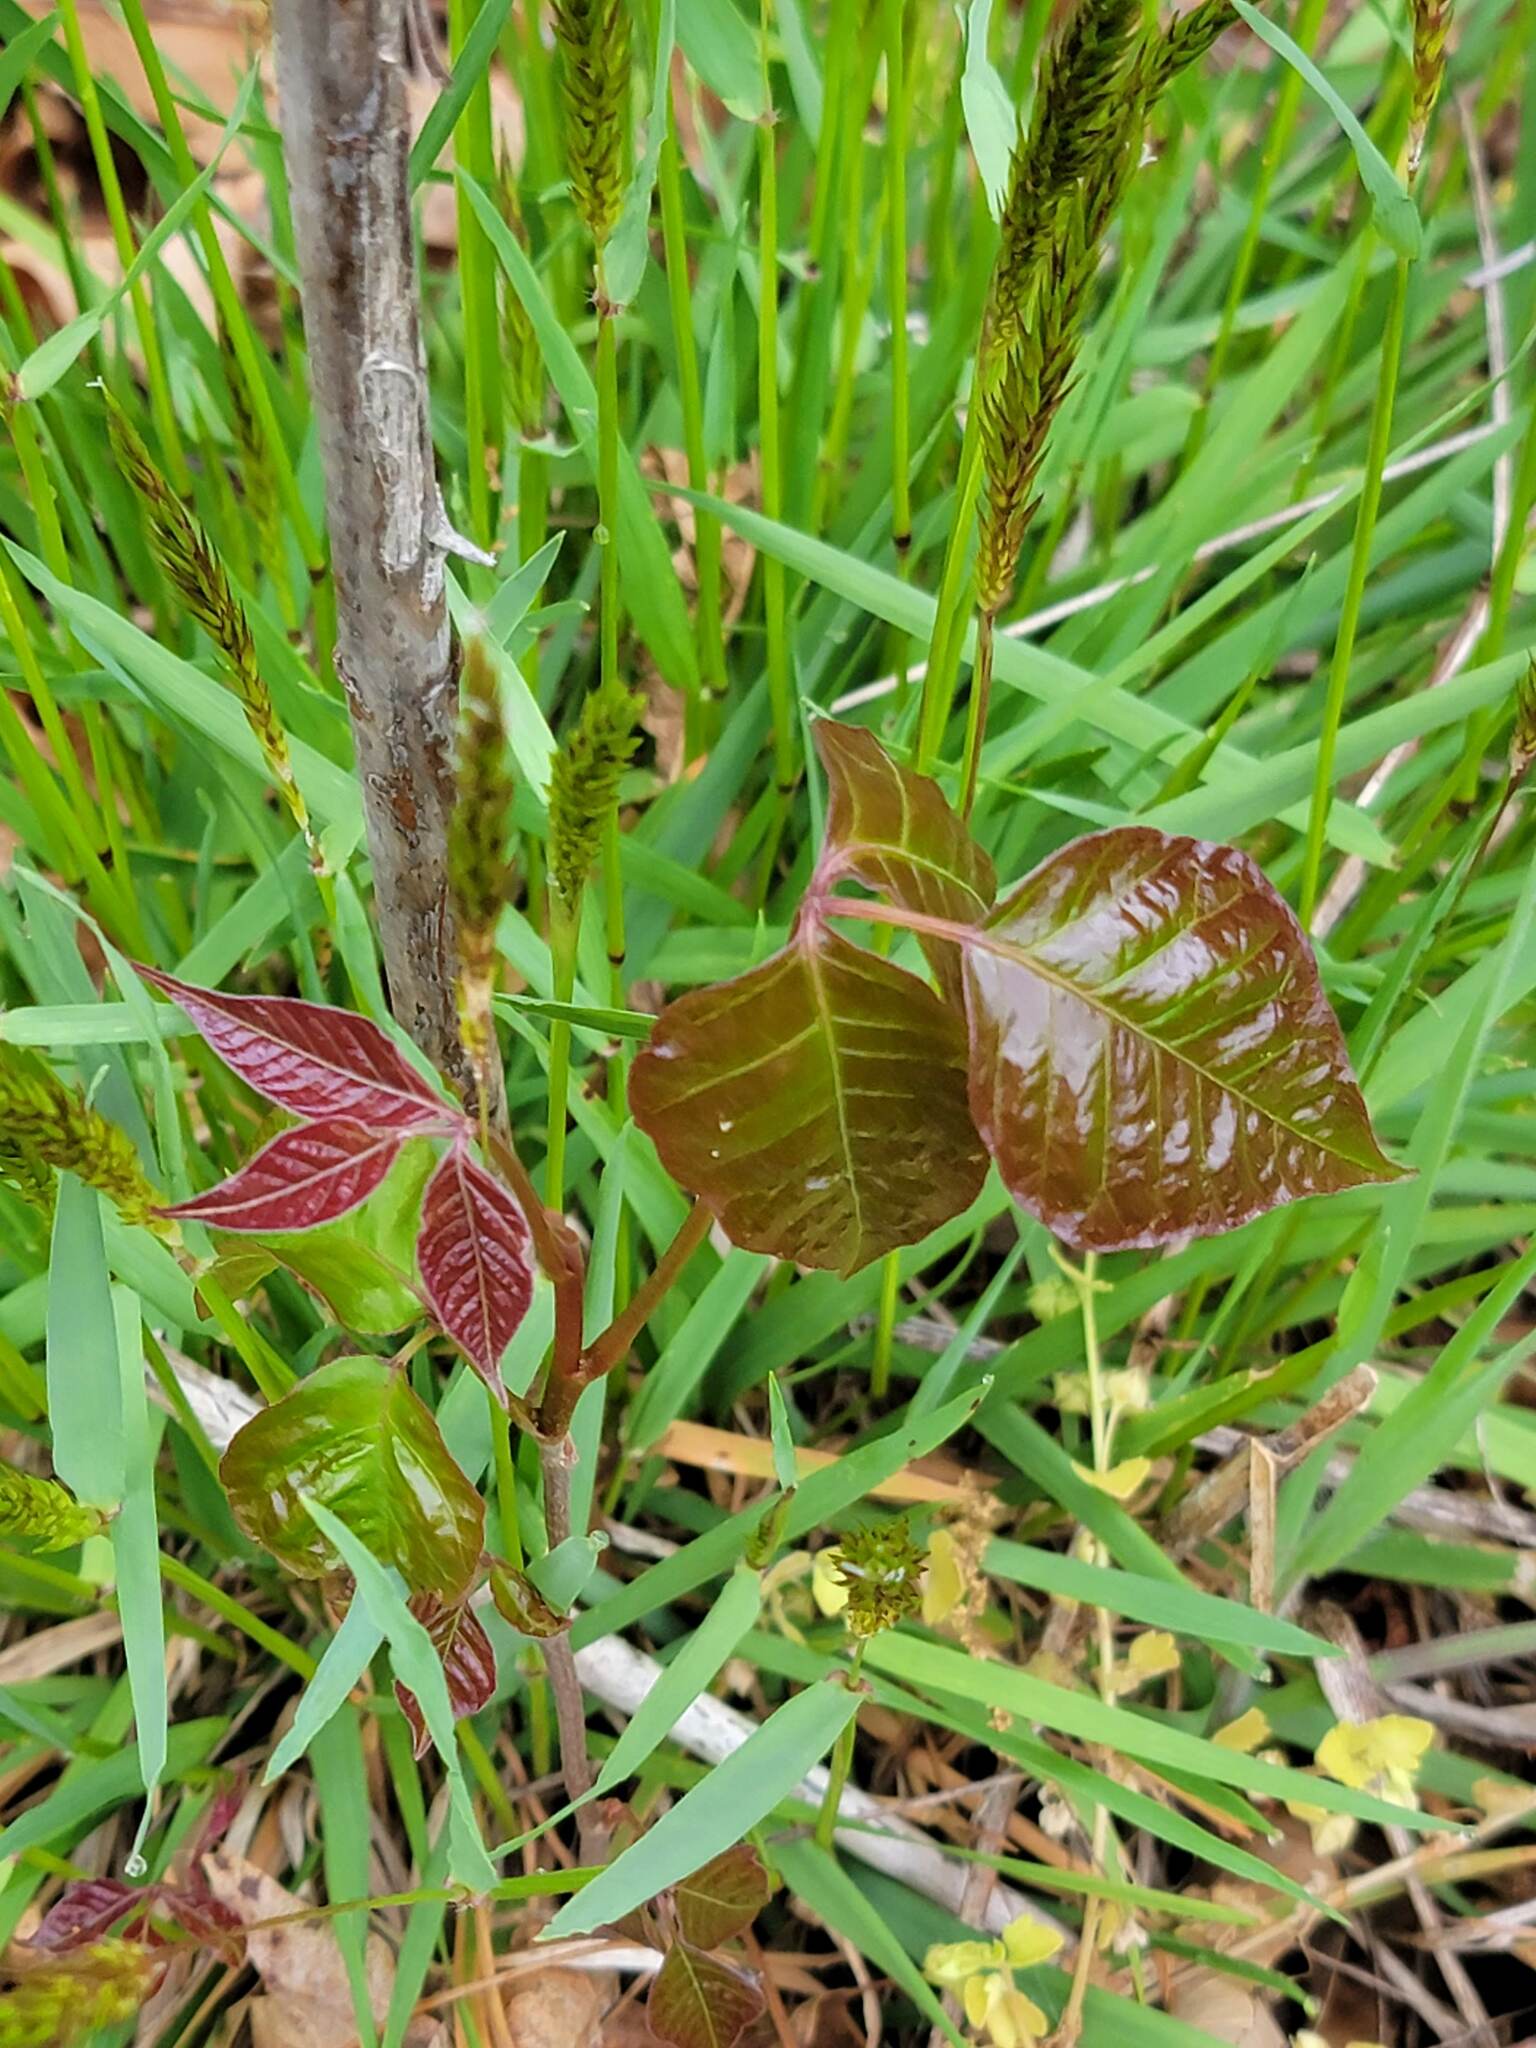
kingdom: Plantae
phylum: Tracheophyta
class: Magnoliopsida
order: Sapindales
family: Anacardiaceae
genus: Toxicodendron
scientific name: Toxicodendron radicans
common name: Poison ivy
